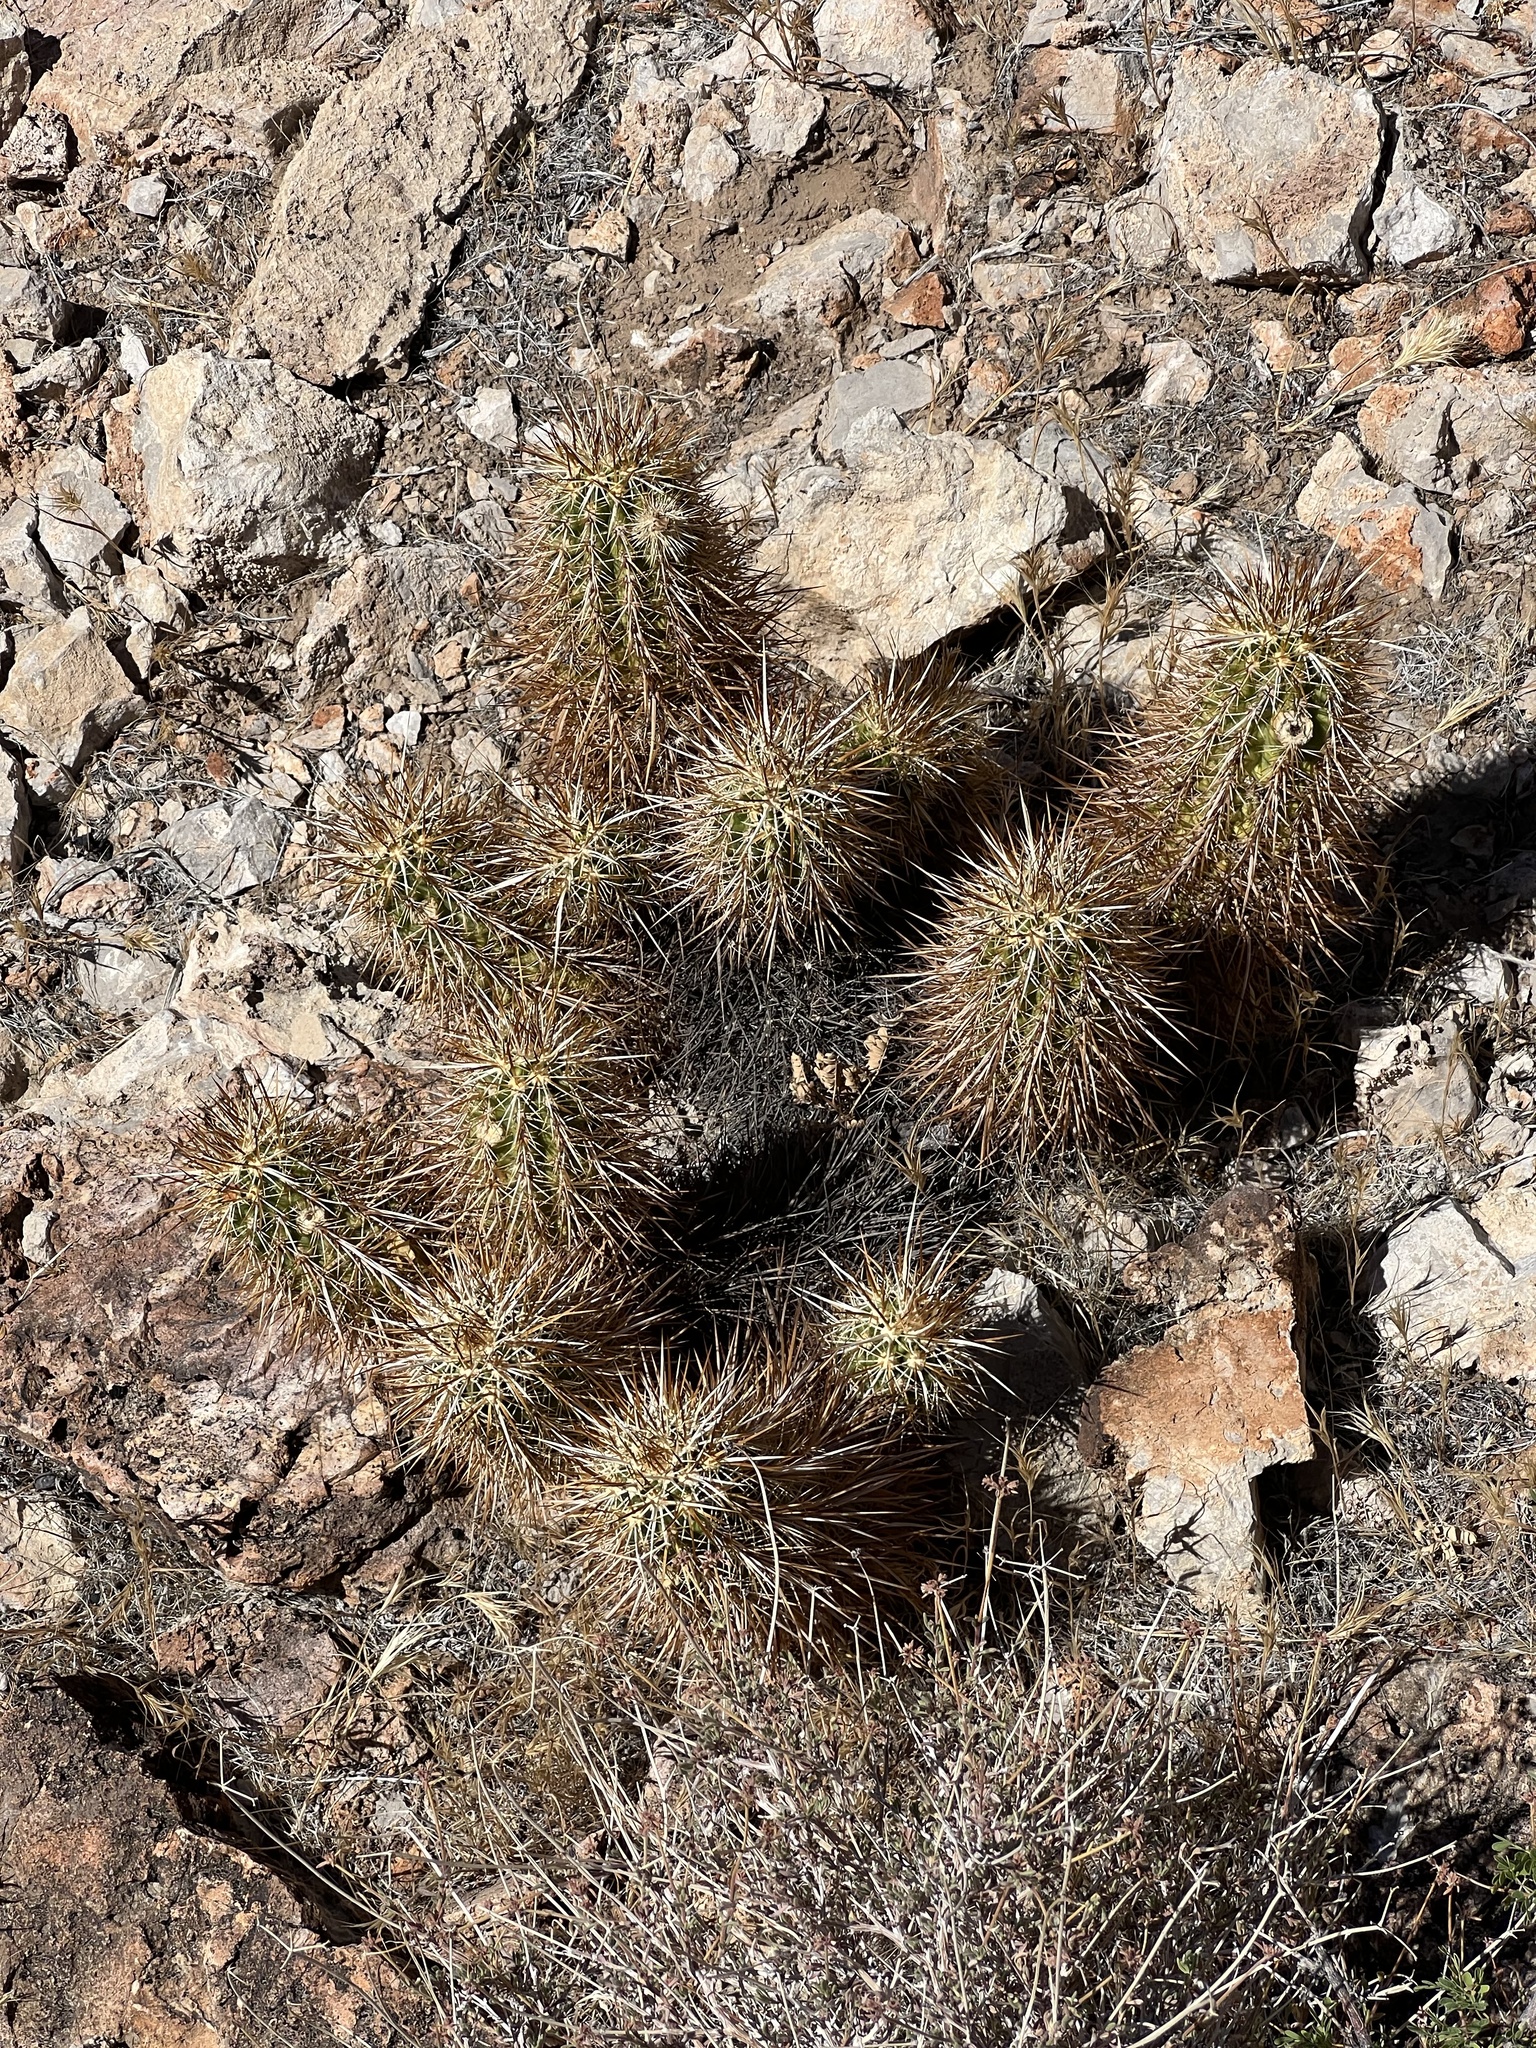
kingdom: Plantae
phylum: Tracheophyta
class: Magnoliopsida
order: Caryophyllales
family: Cactaceae
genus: Echinocereus
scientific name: Echinocereus engelmannii
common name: Engelmann's hedgehog cactus
